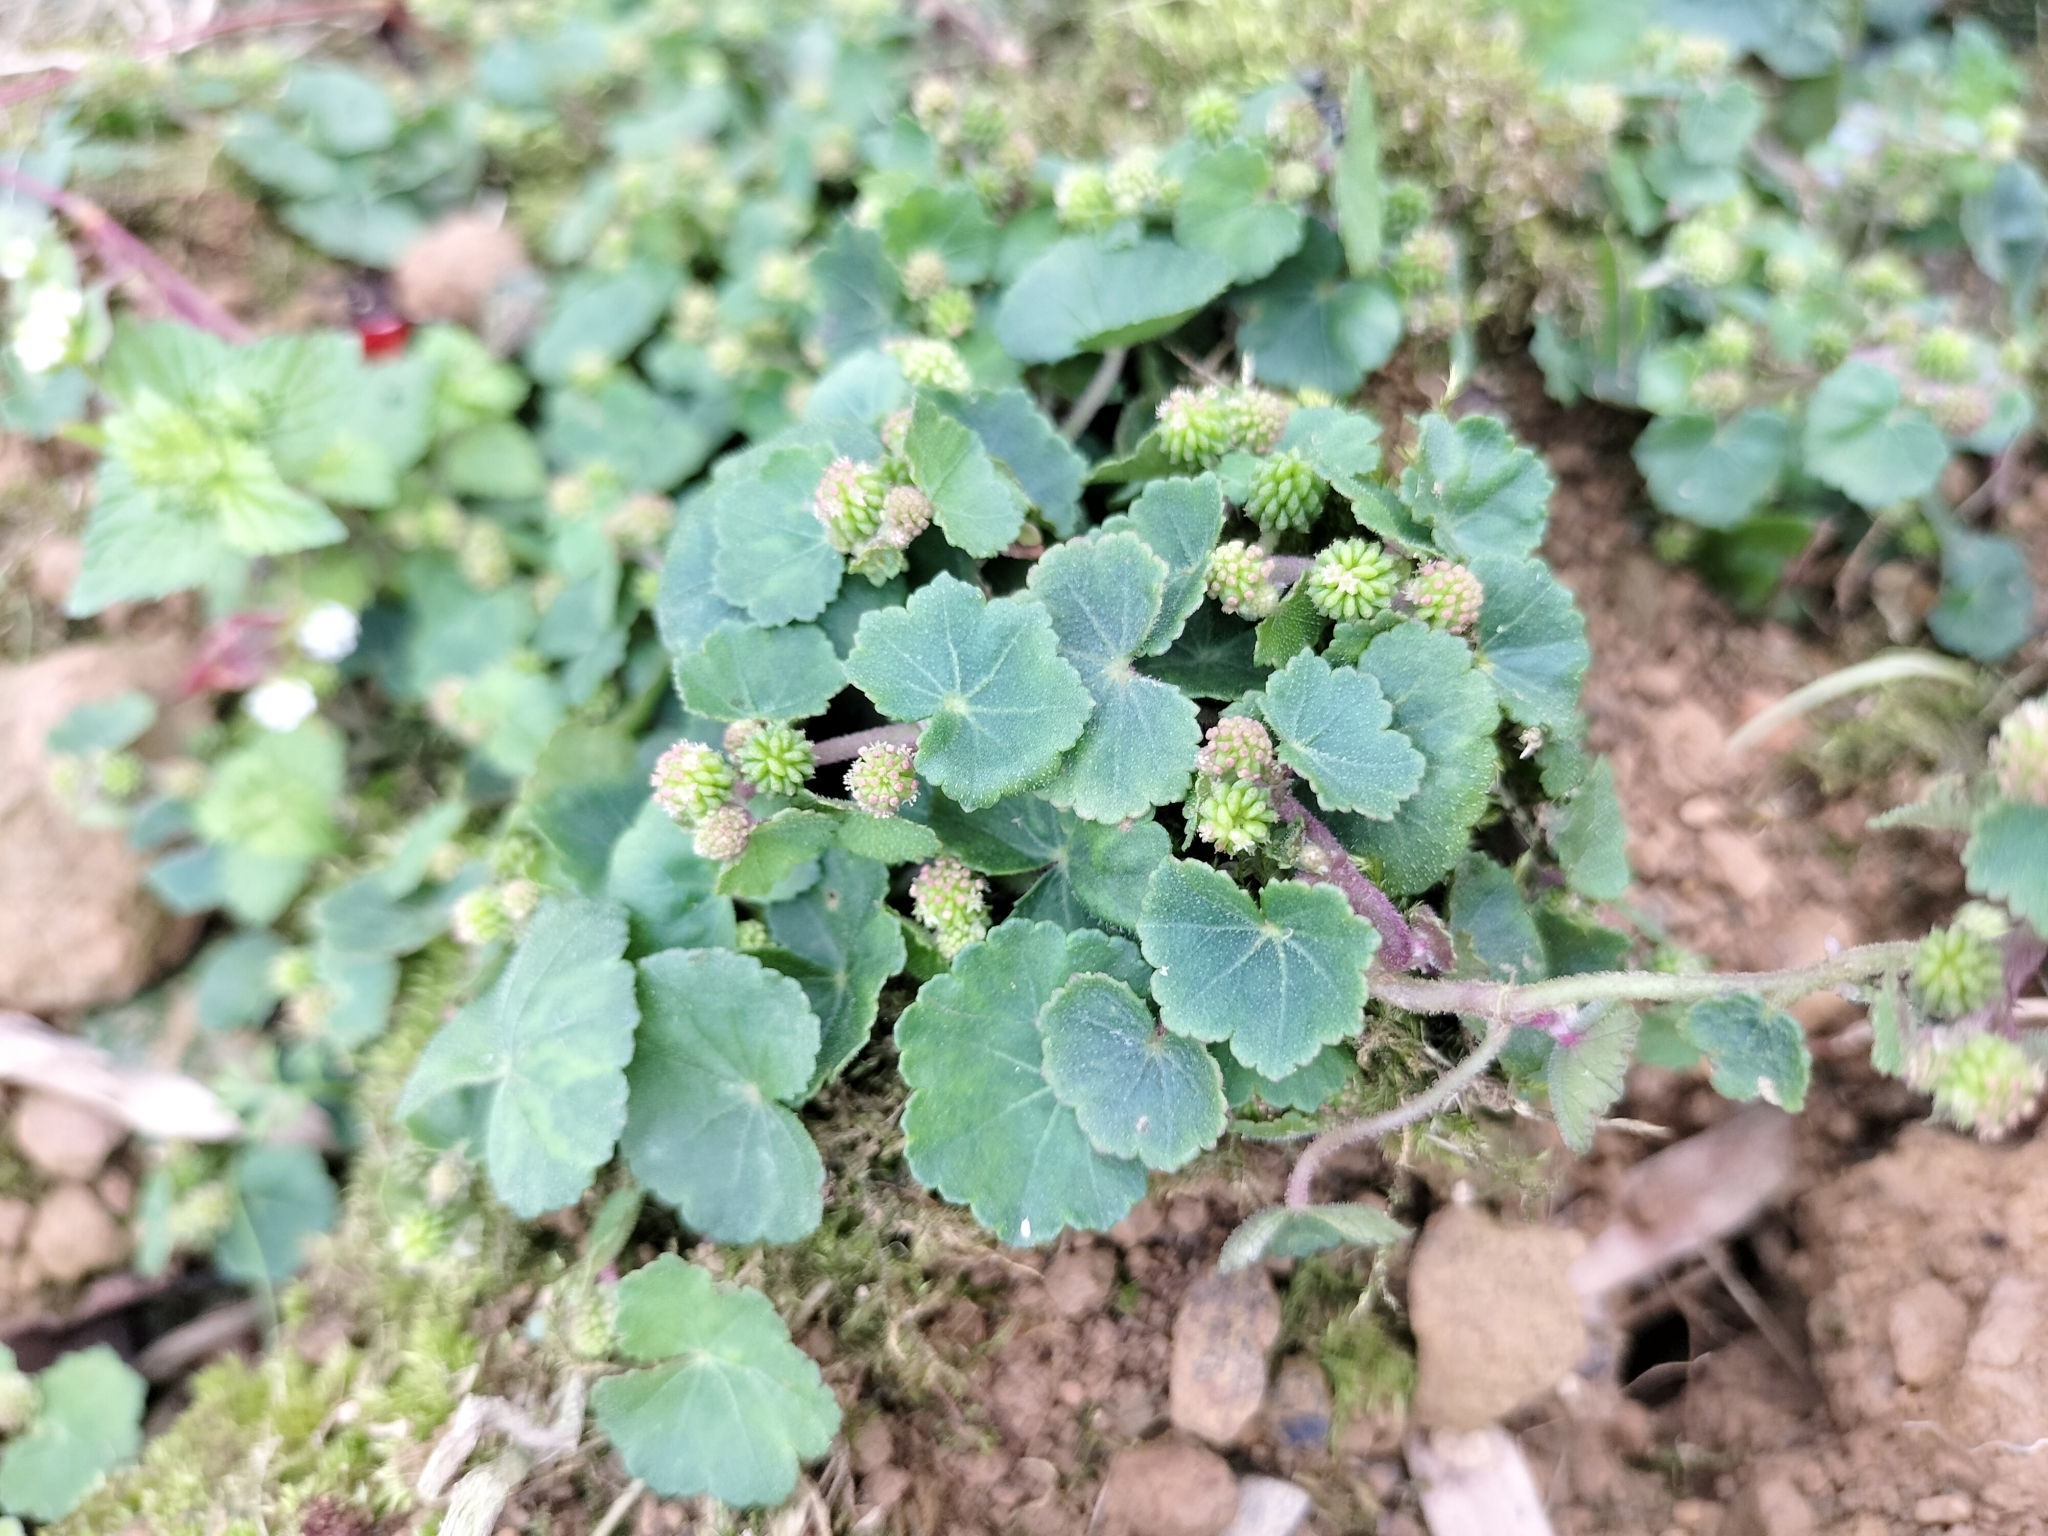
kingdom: Plantae
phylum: Tracheophyta
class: Magnoliopsida
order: Apiales
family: Araliaceae
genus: Hydrocotyle
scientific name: Hydrocotyle nepalensis
